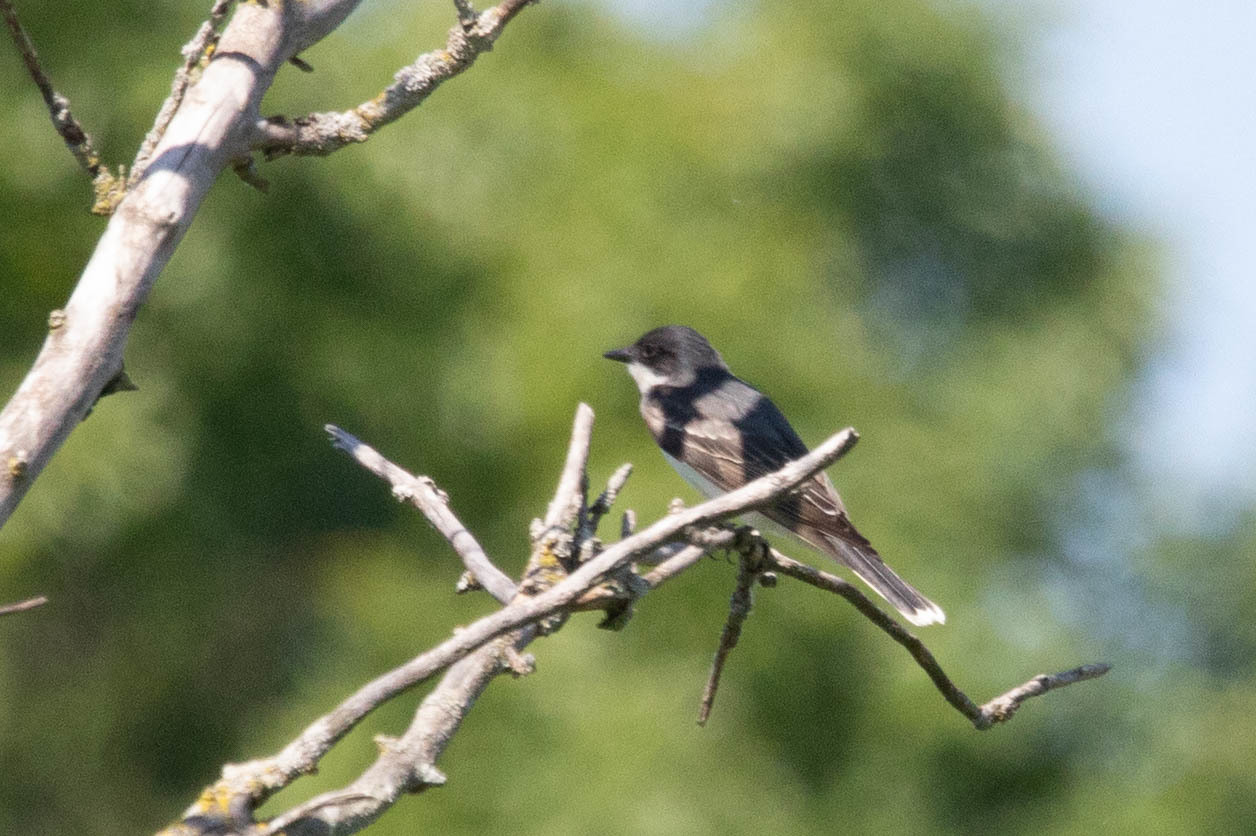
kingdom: Animalia
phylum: Chordata
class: Aves
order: Passeriformes
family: Tyrannidae
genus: Tyrannus
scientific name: Tyrannus tyrannus
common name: Eastern kingbird
